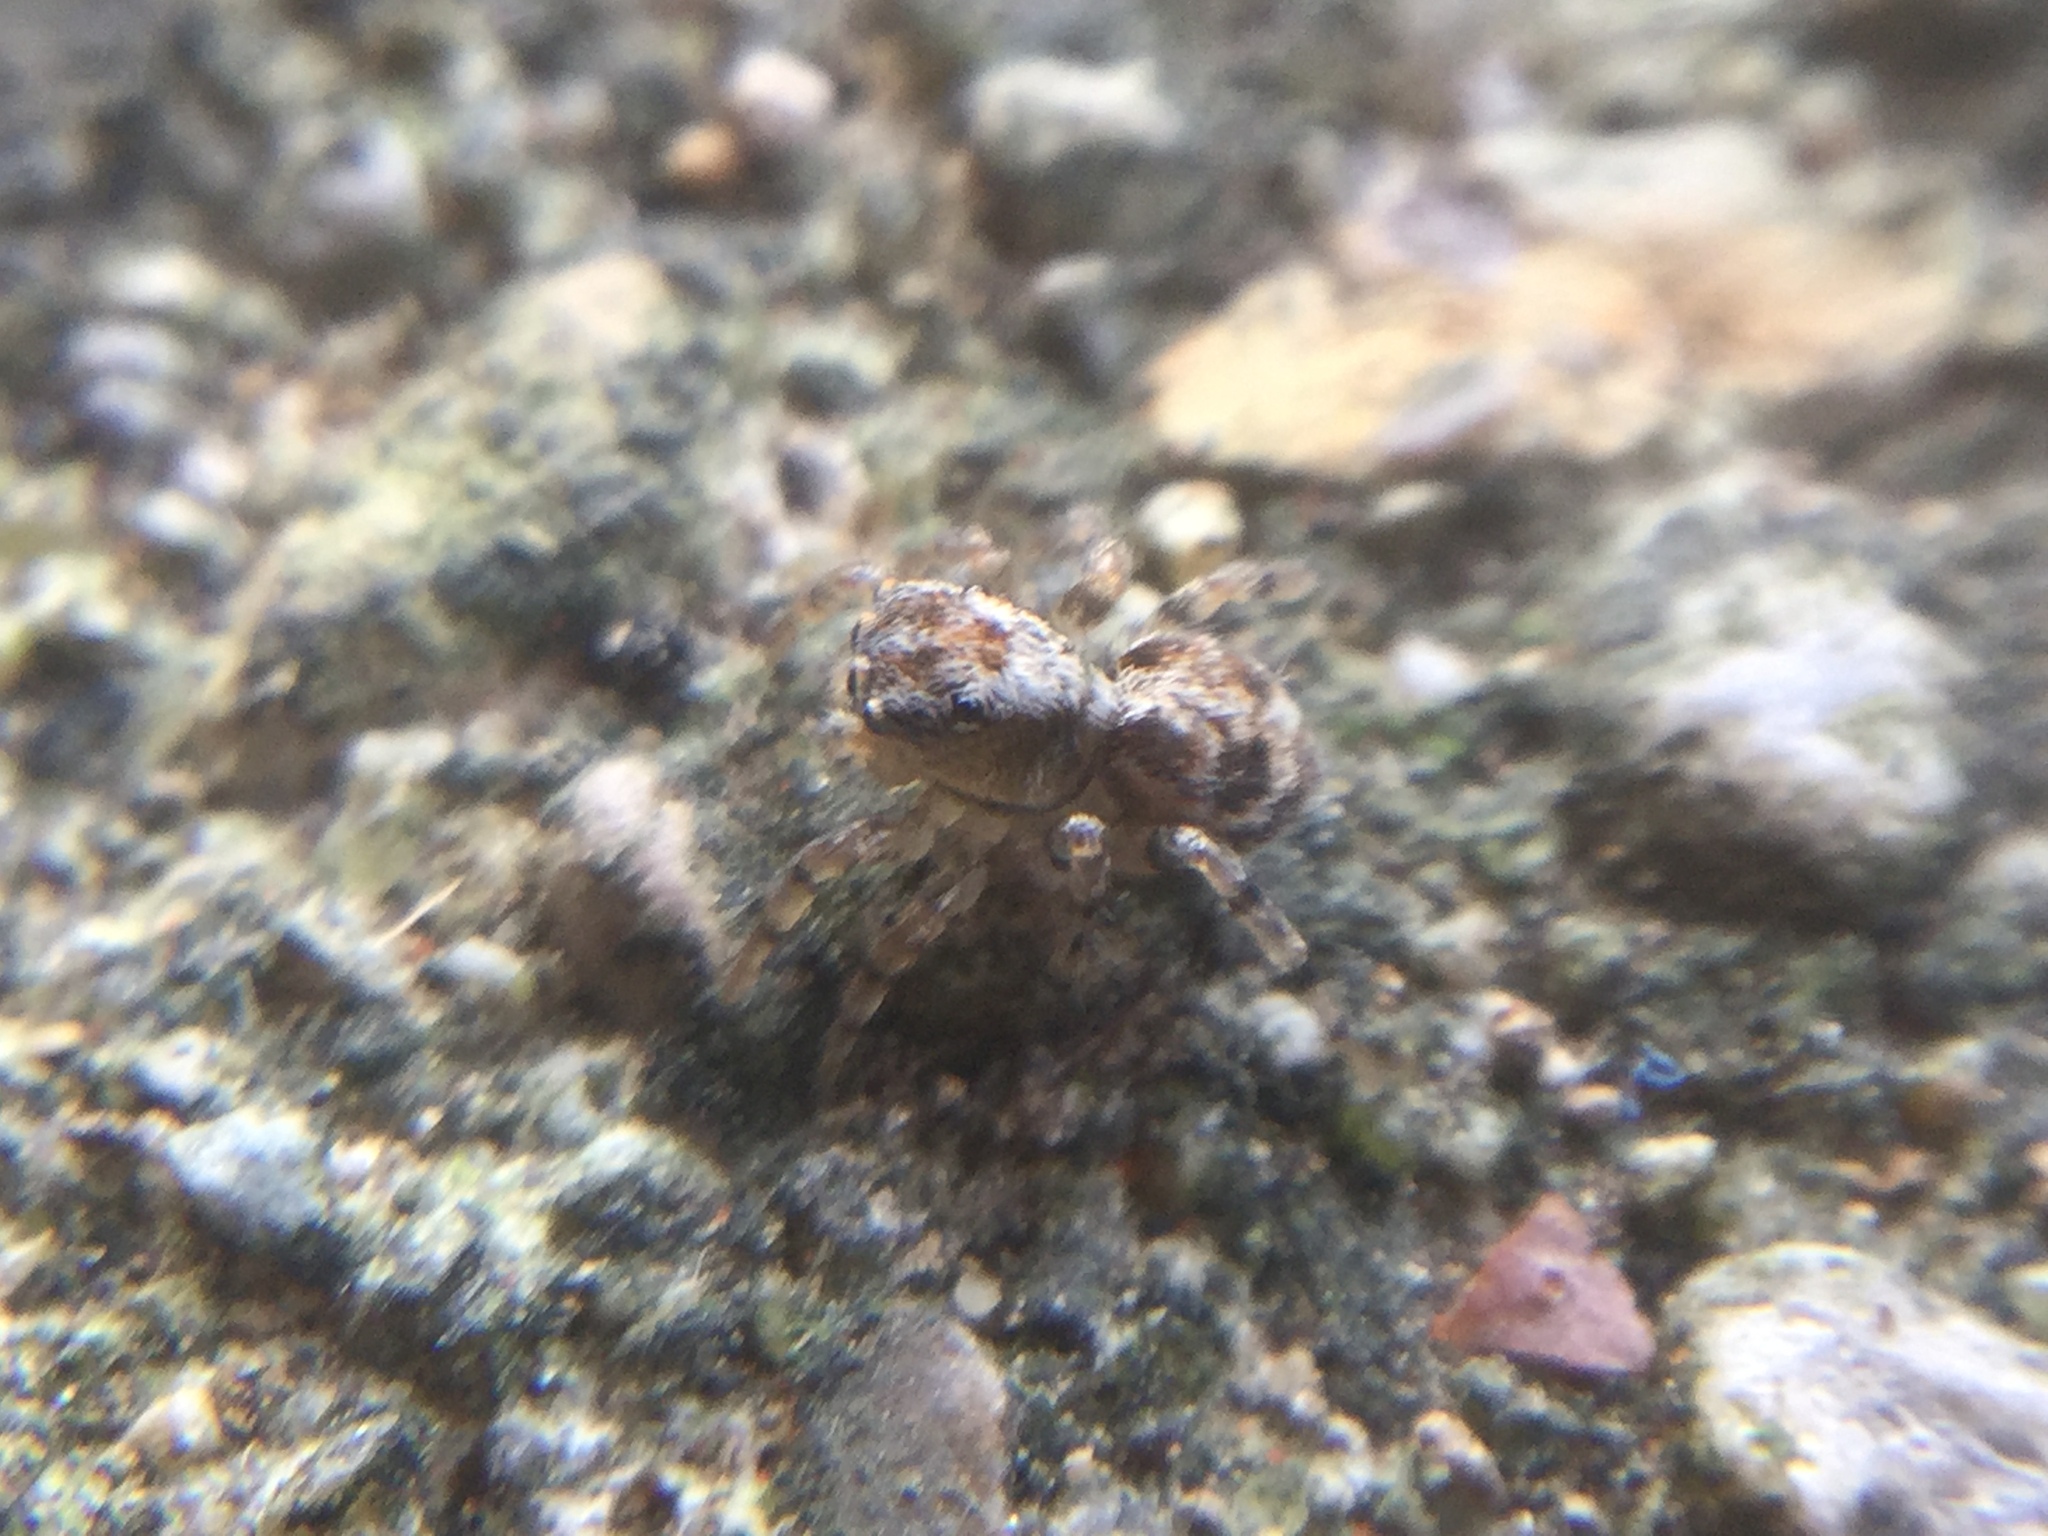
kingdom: Animalia
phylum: Arthropoda
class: Arachnida
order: Araneae
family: Salticidae
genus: Naphrys
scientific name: Naphrys pulex
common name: Flea jumping spider
